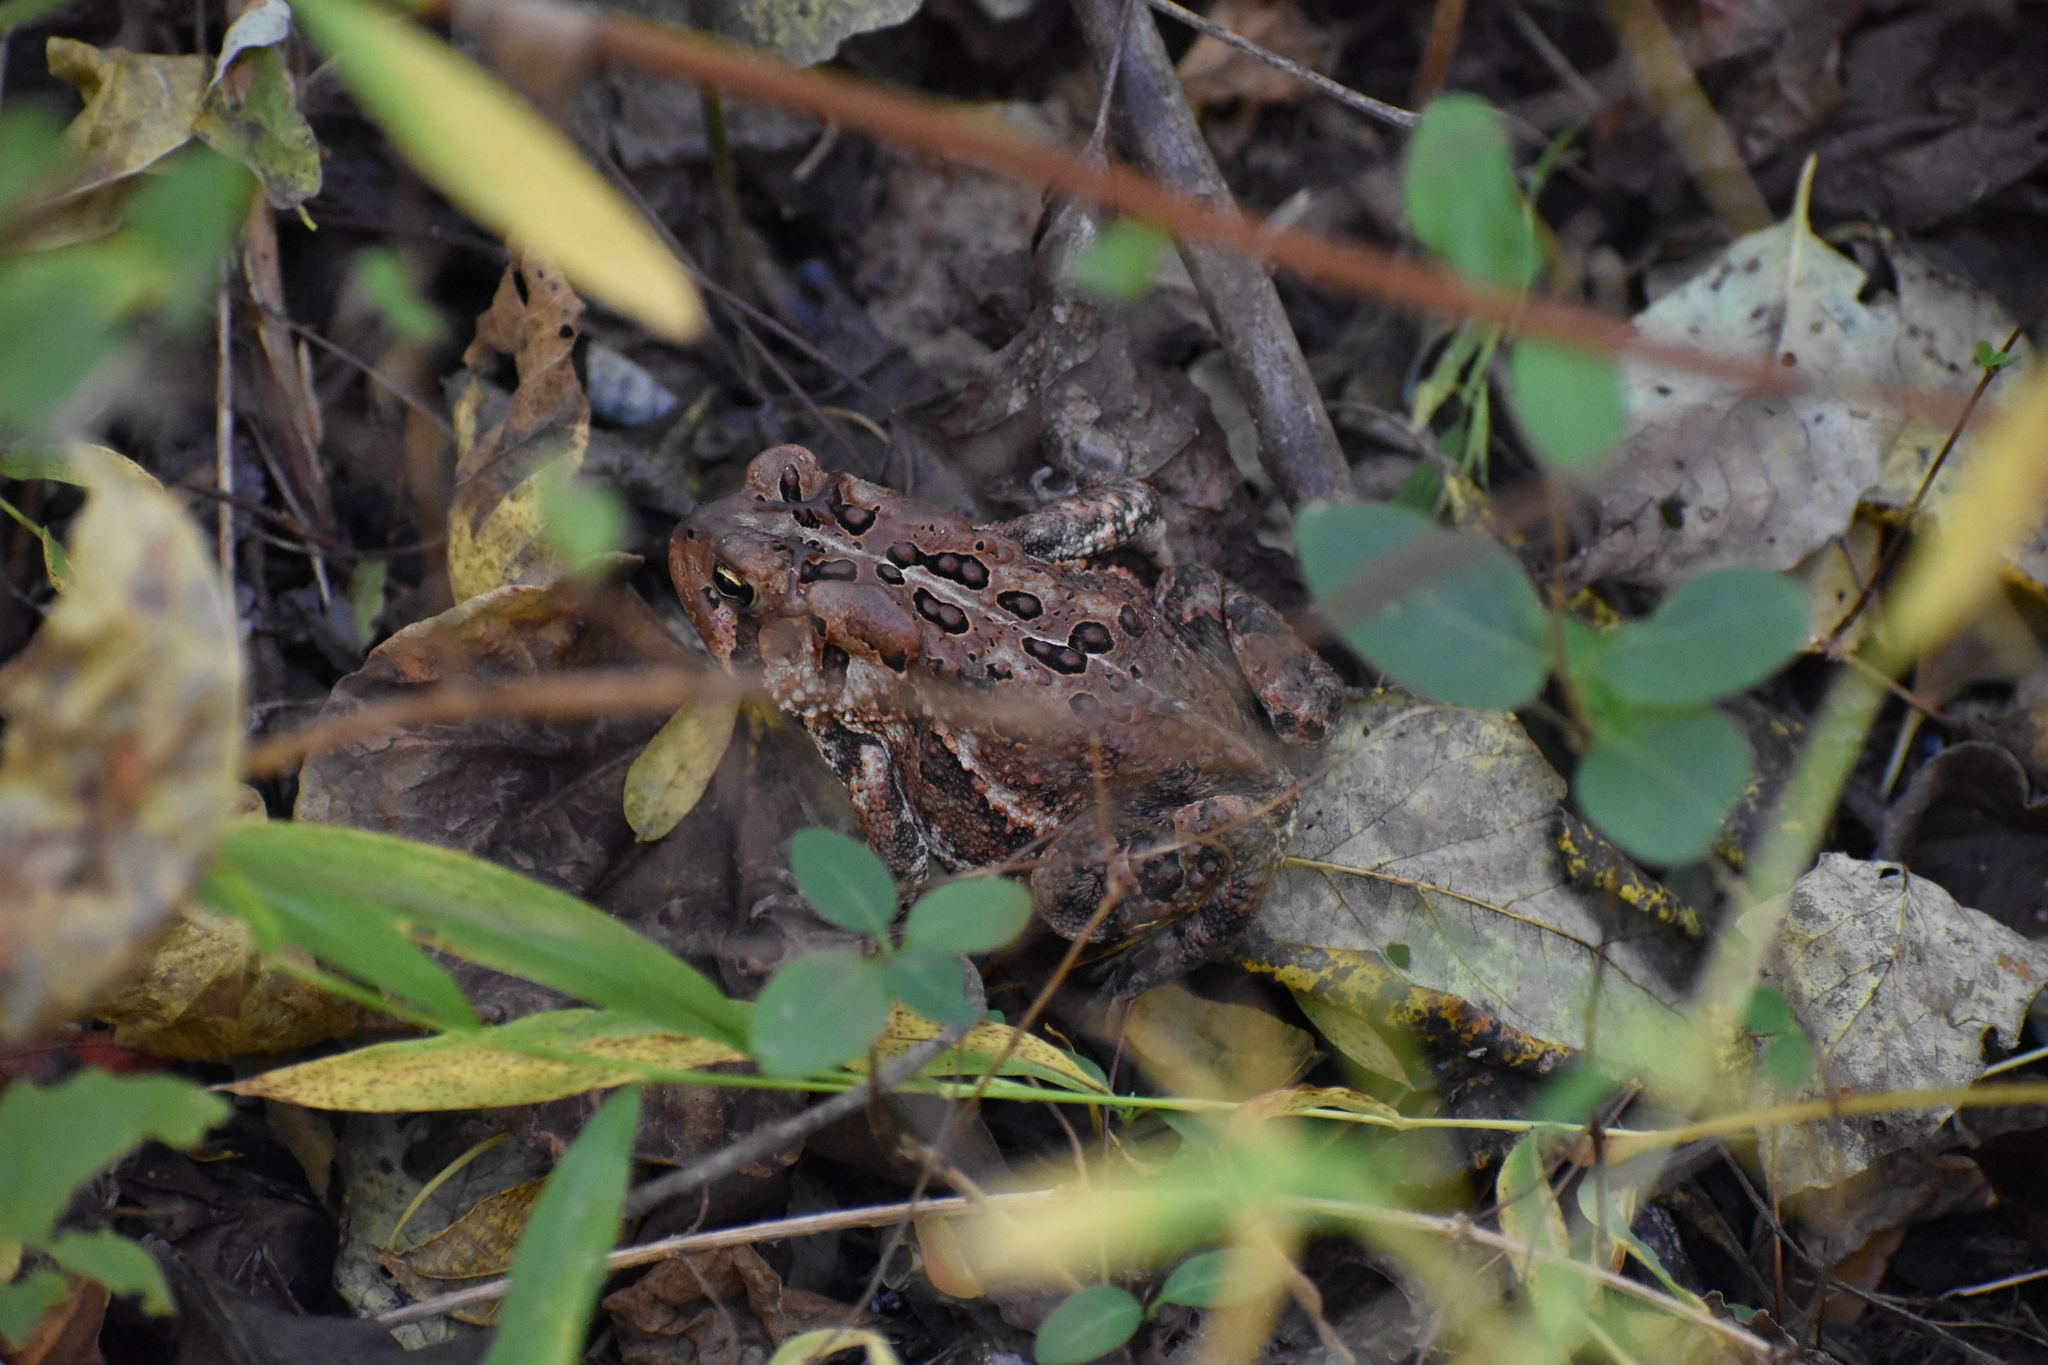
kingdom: Animalia
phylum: Chordata
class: Amphibia
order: Anura
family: Bufonidae
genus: Anaxyrus
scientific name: Anaxyrus americanus
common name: American toad
